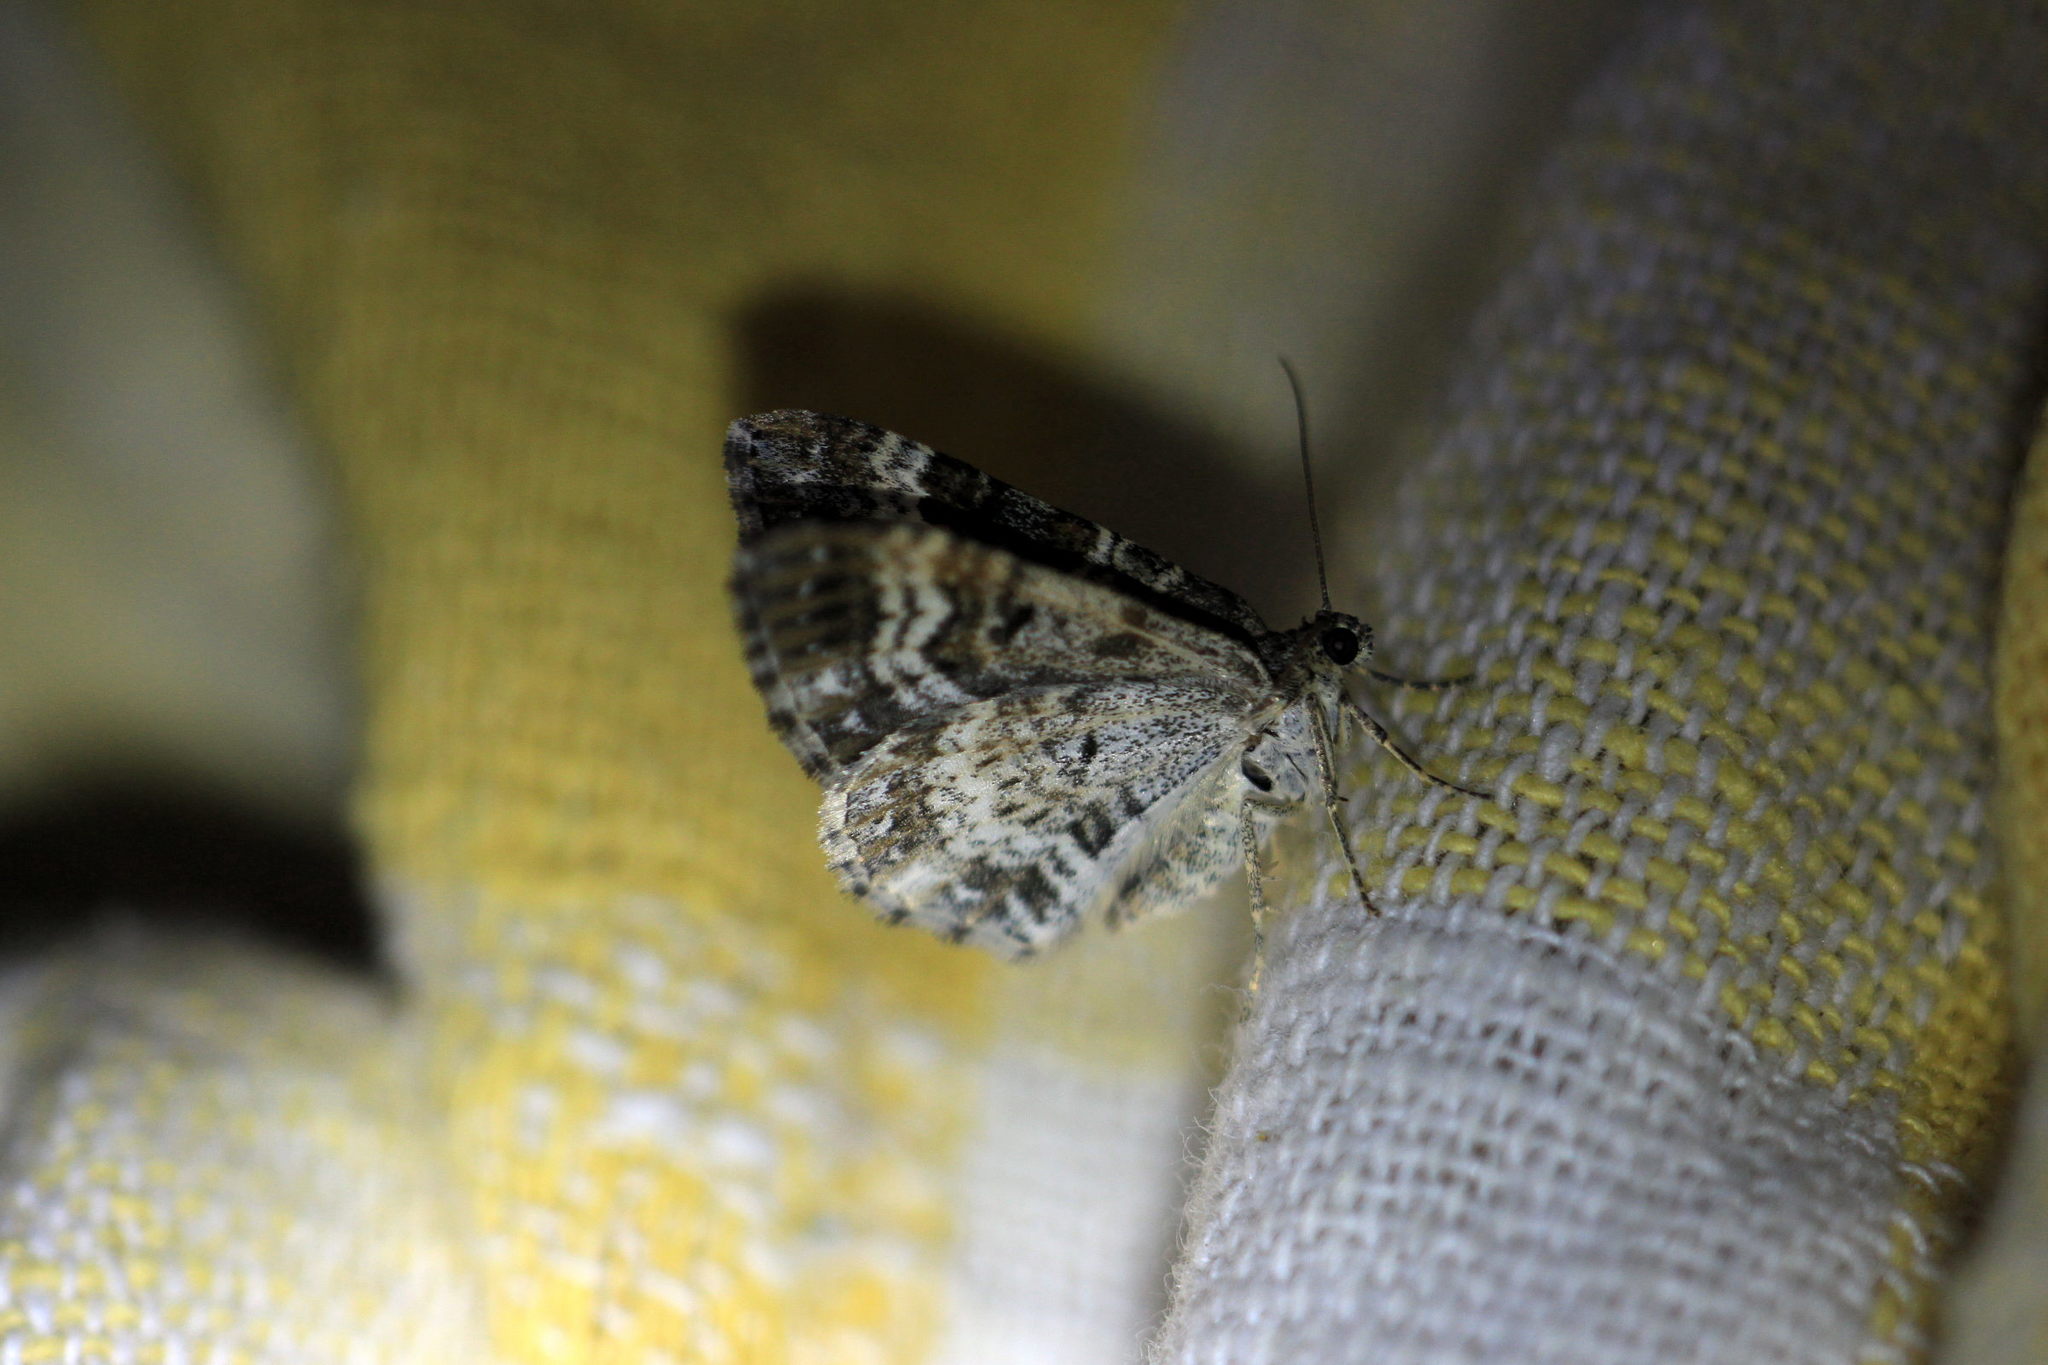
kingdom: Animalia
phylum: Arthropoda
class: Insecta
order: Lepidoptera
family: Geometridae
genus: Epirrhoe
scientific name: Epirrhoe alternata
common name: Common carpet
